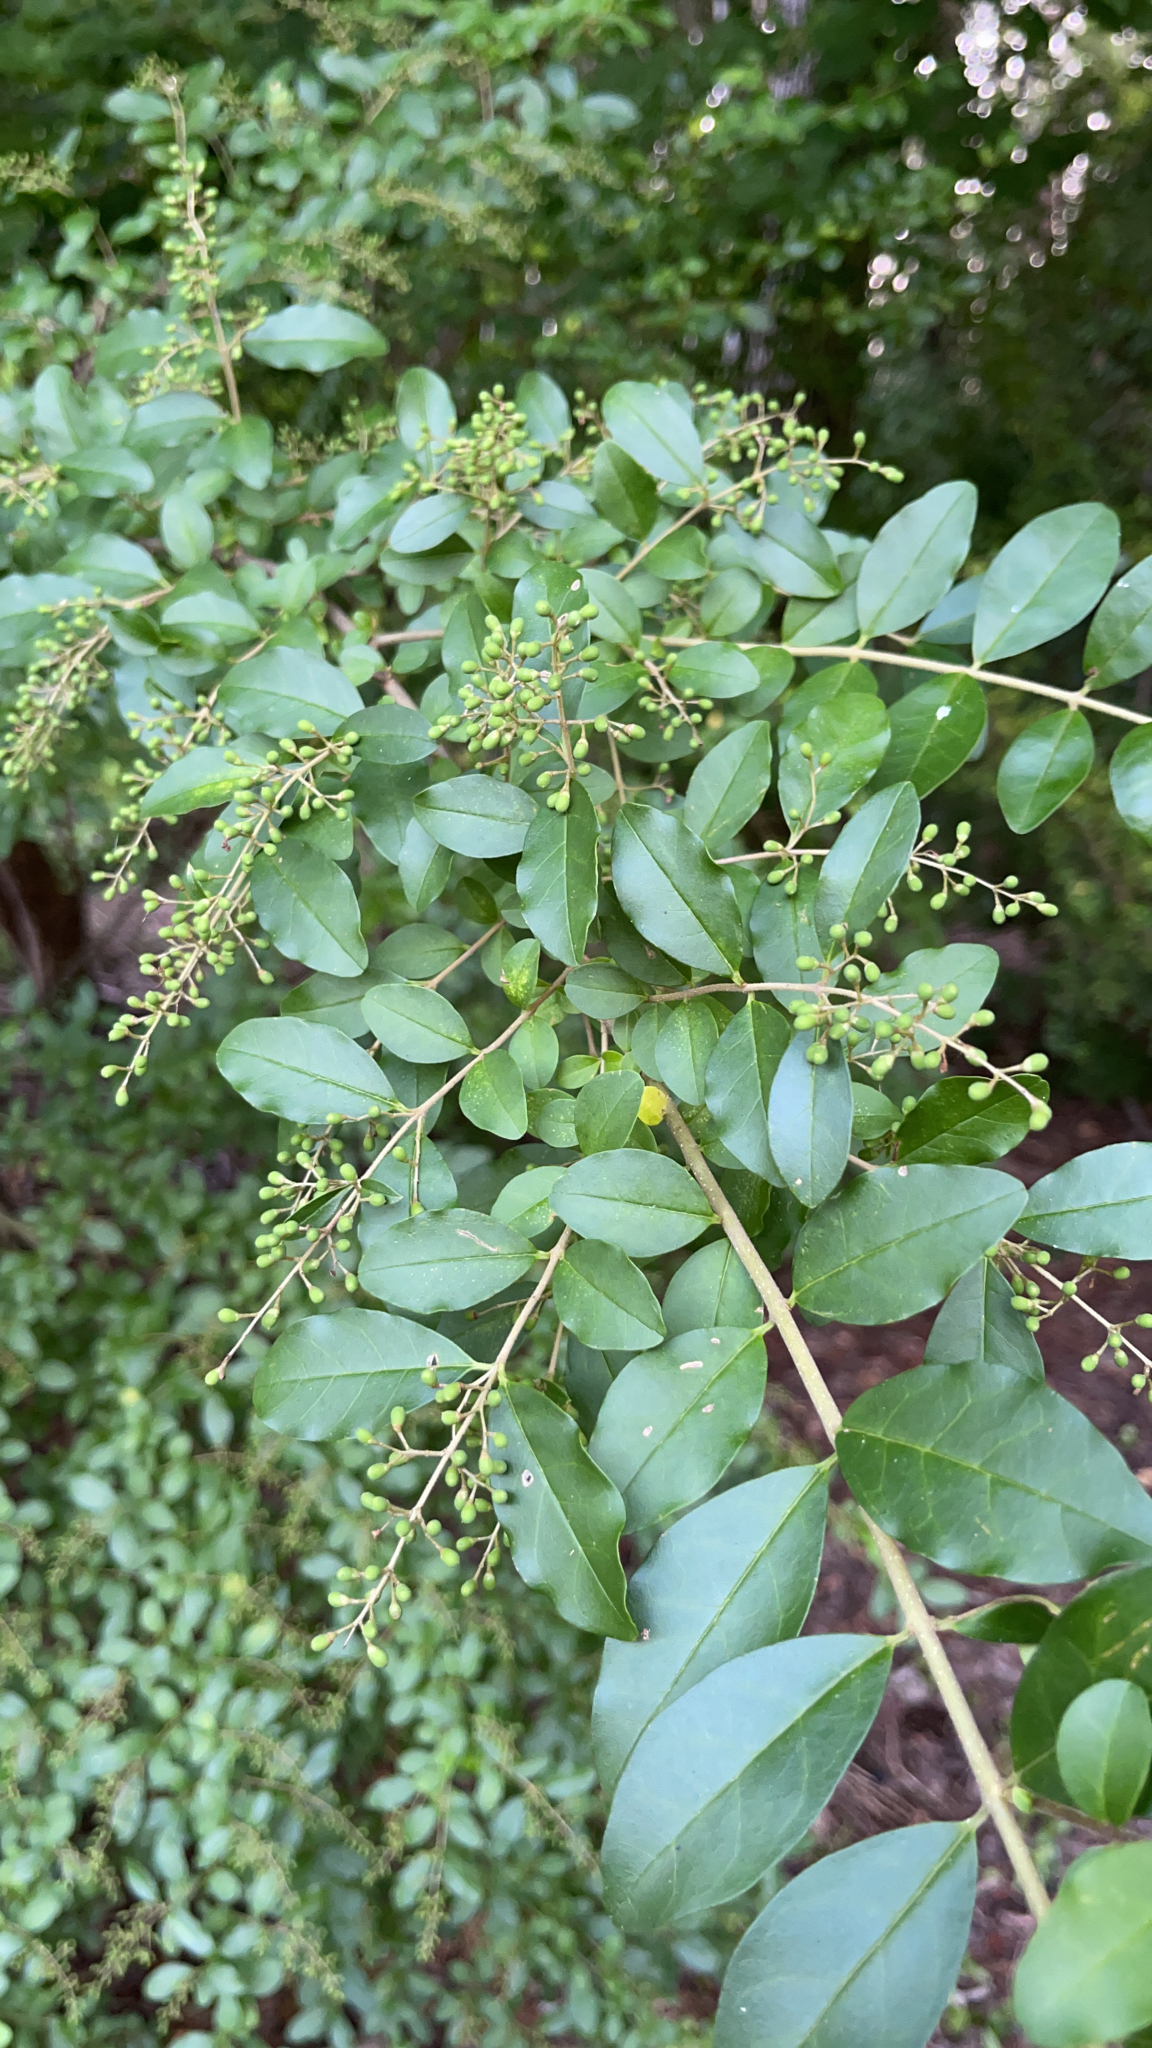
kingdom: Plantae
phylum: Tracheophyta
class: Magnoliopsida
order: Lamiales
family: Oleaceae
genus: Ligustrum
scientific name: Ligustrum sinense
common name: Chinese privet
